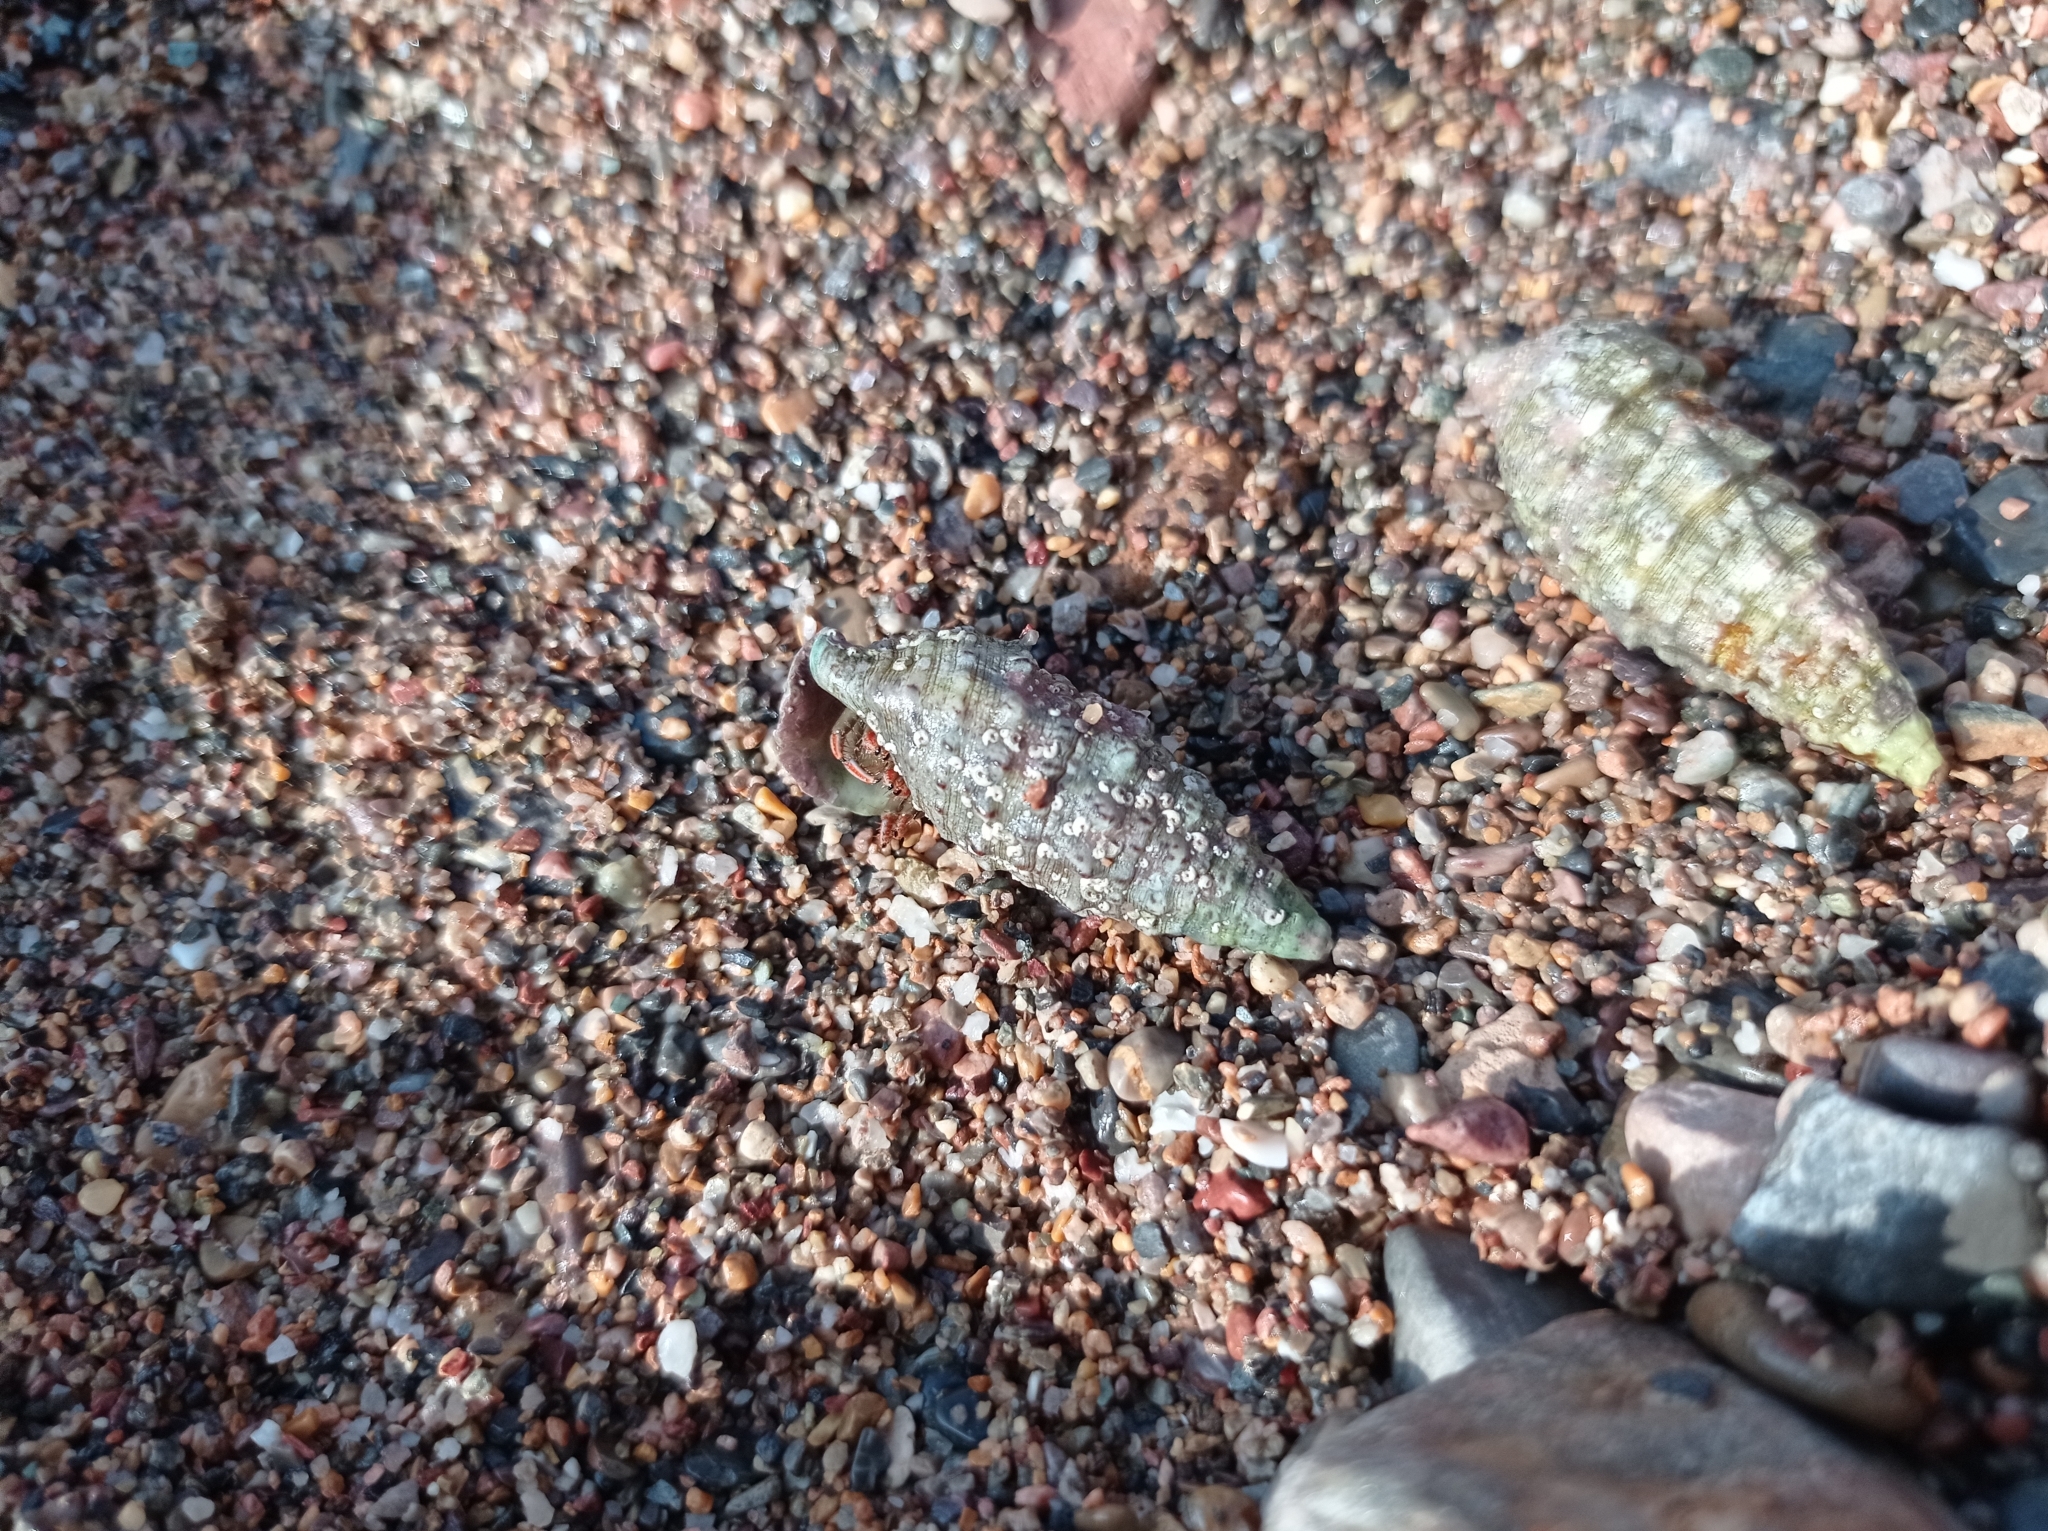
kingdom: Animalia
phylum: Arthropoda
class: Malacostraca
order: Decapoda
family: Diogenidae
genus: Clibanarius
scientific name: Clibanarius erythropus
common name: Hermit crab
